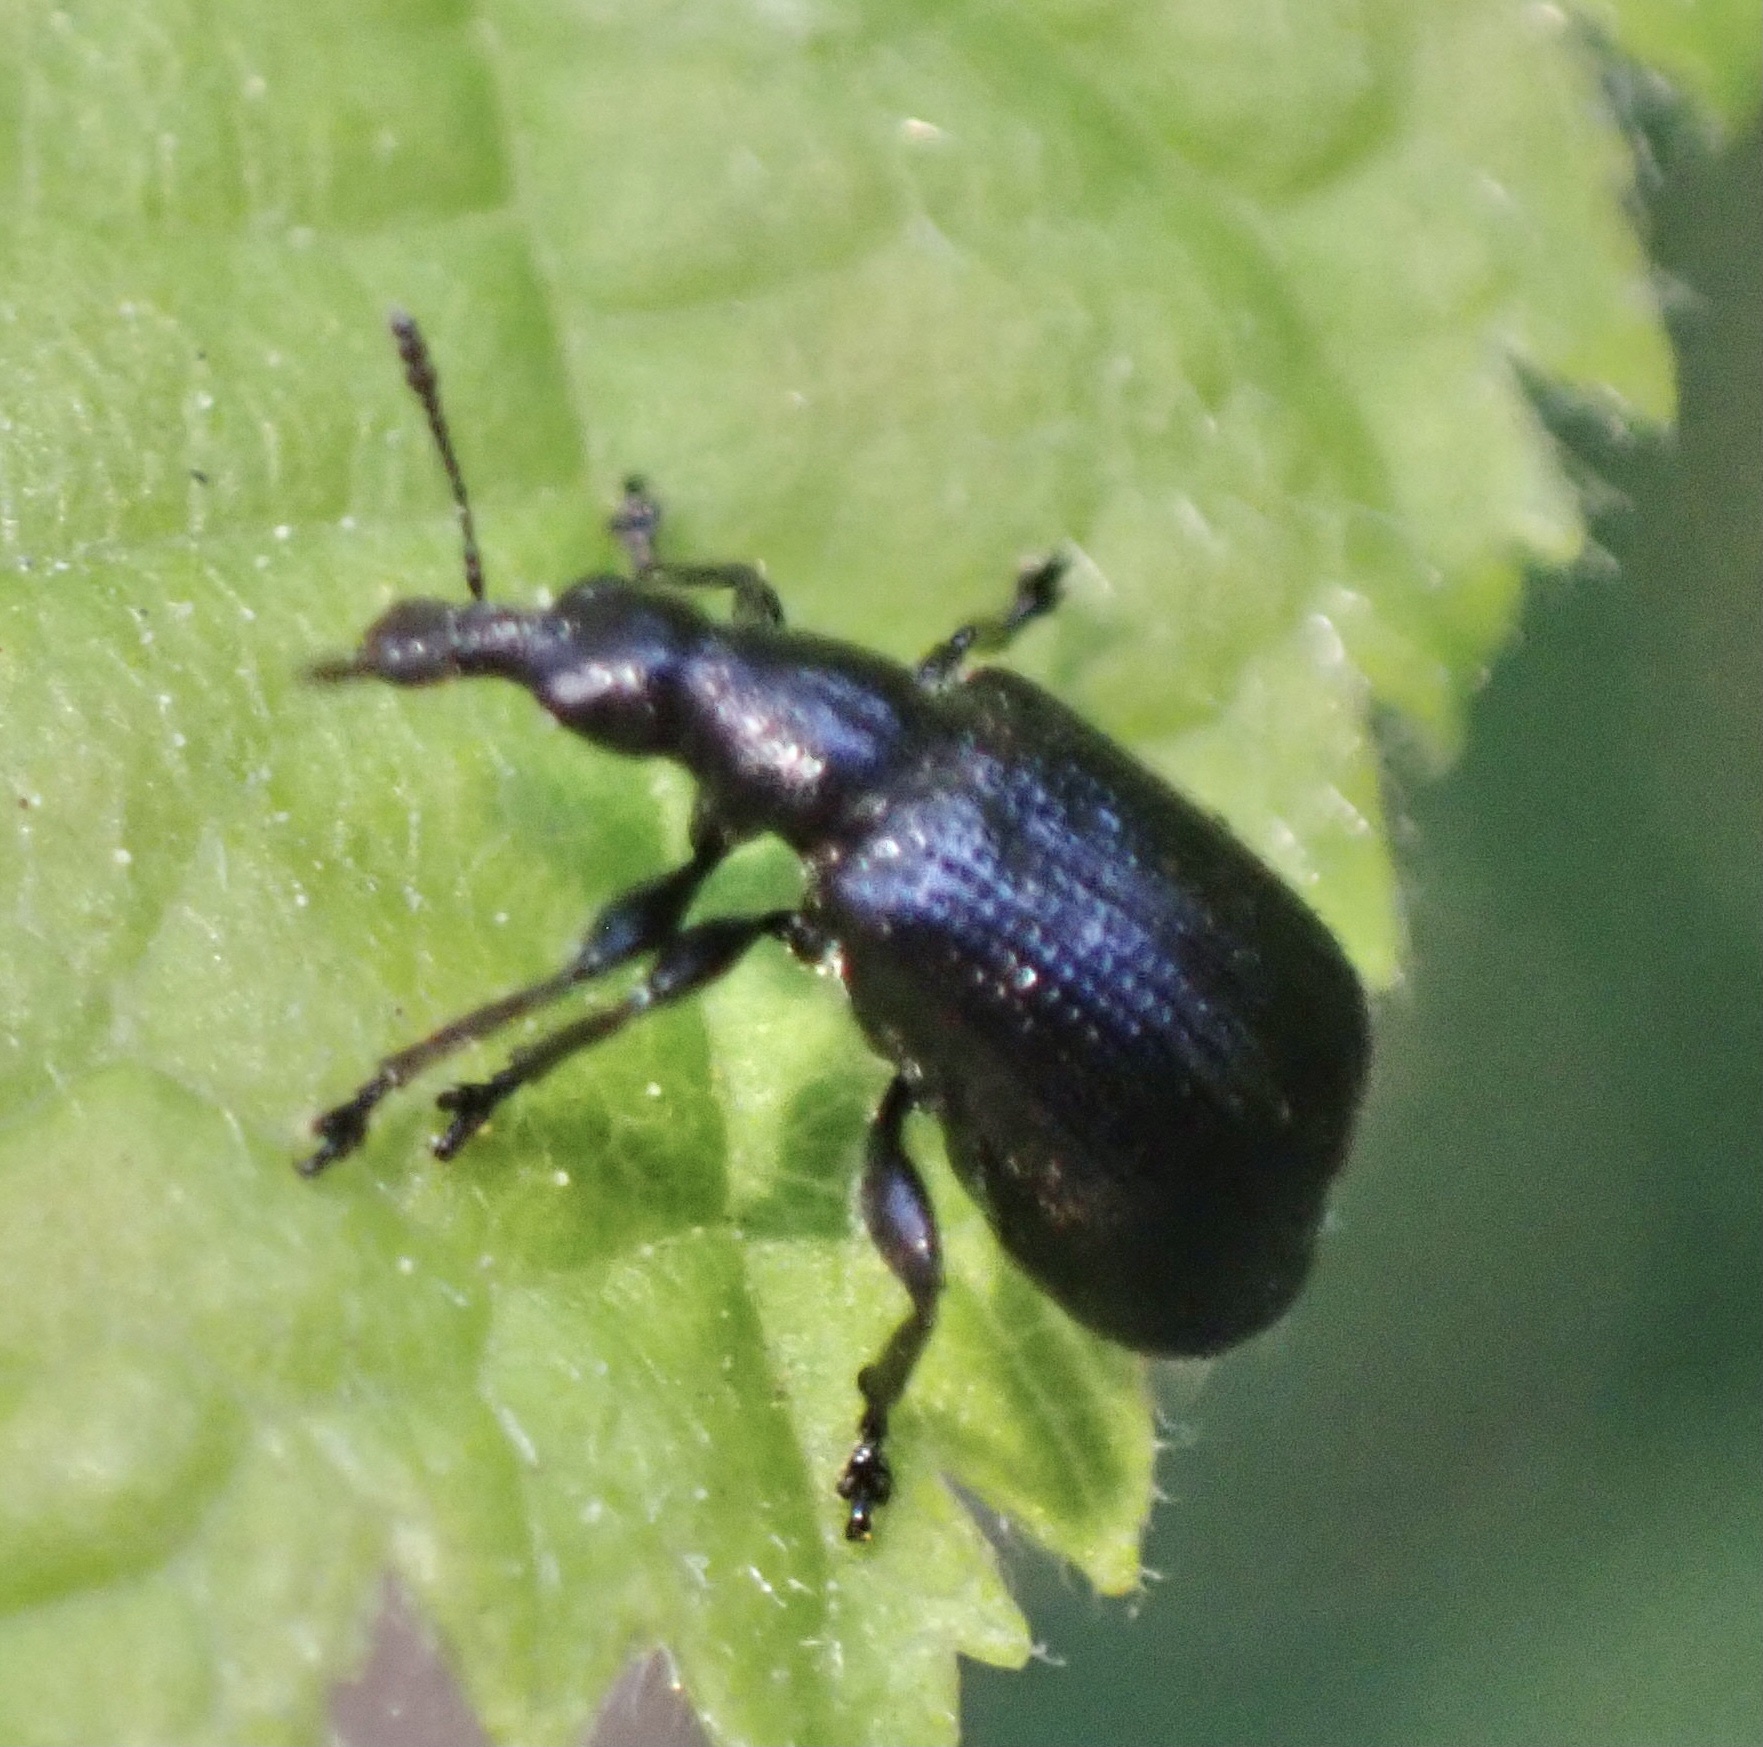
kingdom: Animalia
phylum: Arthropoda
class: Insecta
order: Coleoptera
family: Attelabidae
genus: Deporaus
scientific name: Deporaus betulae
